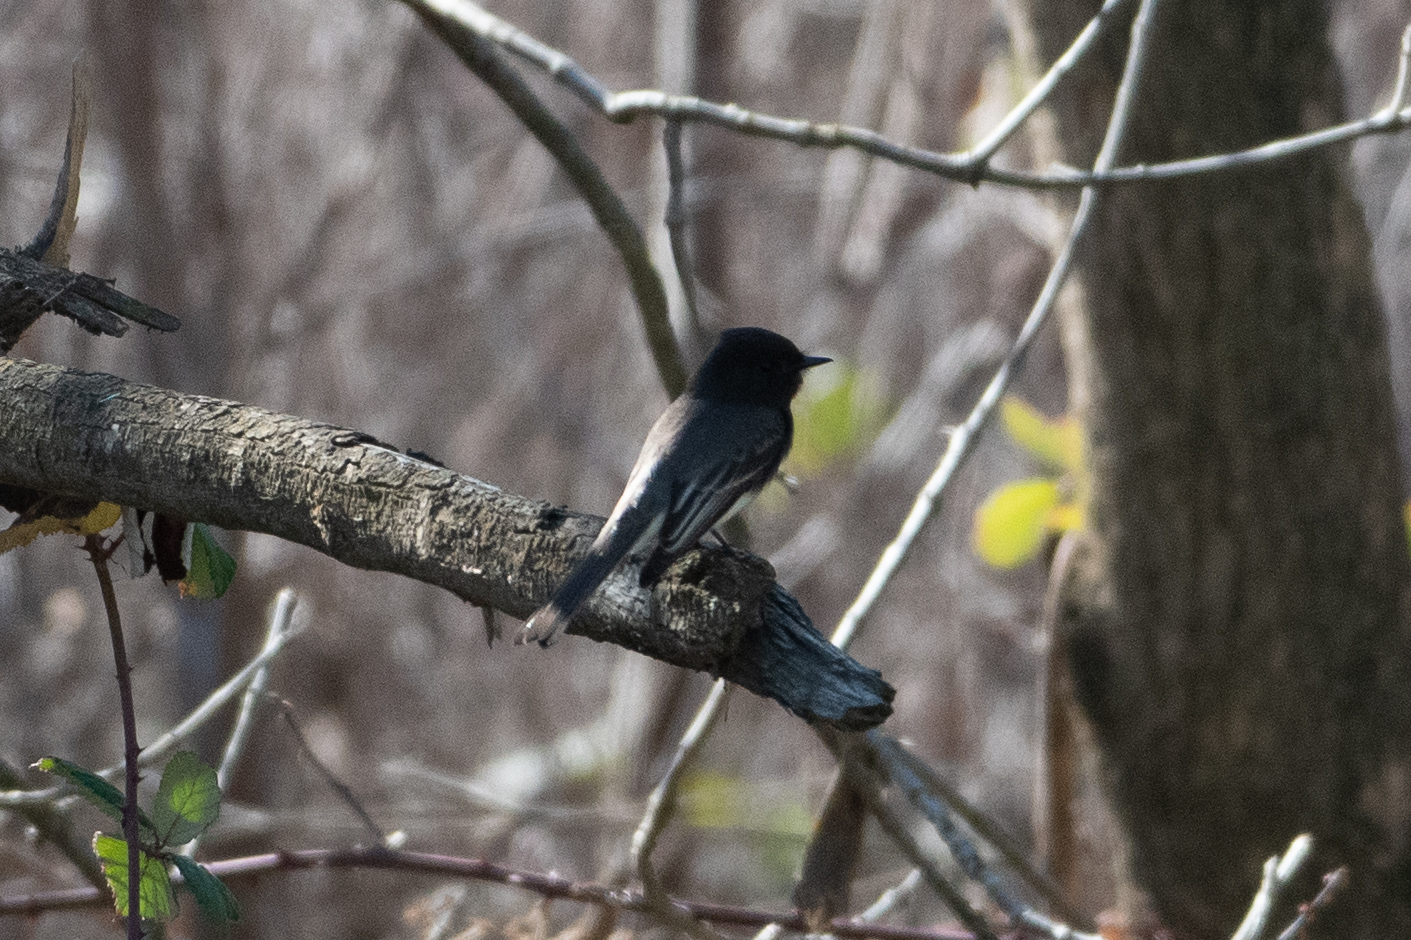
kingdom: Animalia
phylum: Chordata
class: Aves
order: Passeriformes
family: Tyrannidae
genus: Sayornis
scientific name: Sayornis nigricans
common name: Black phoebe
